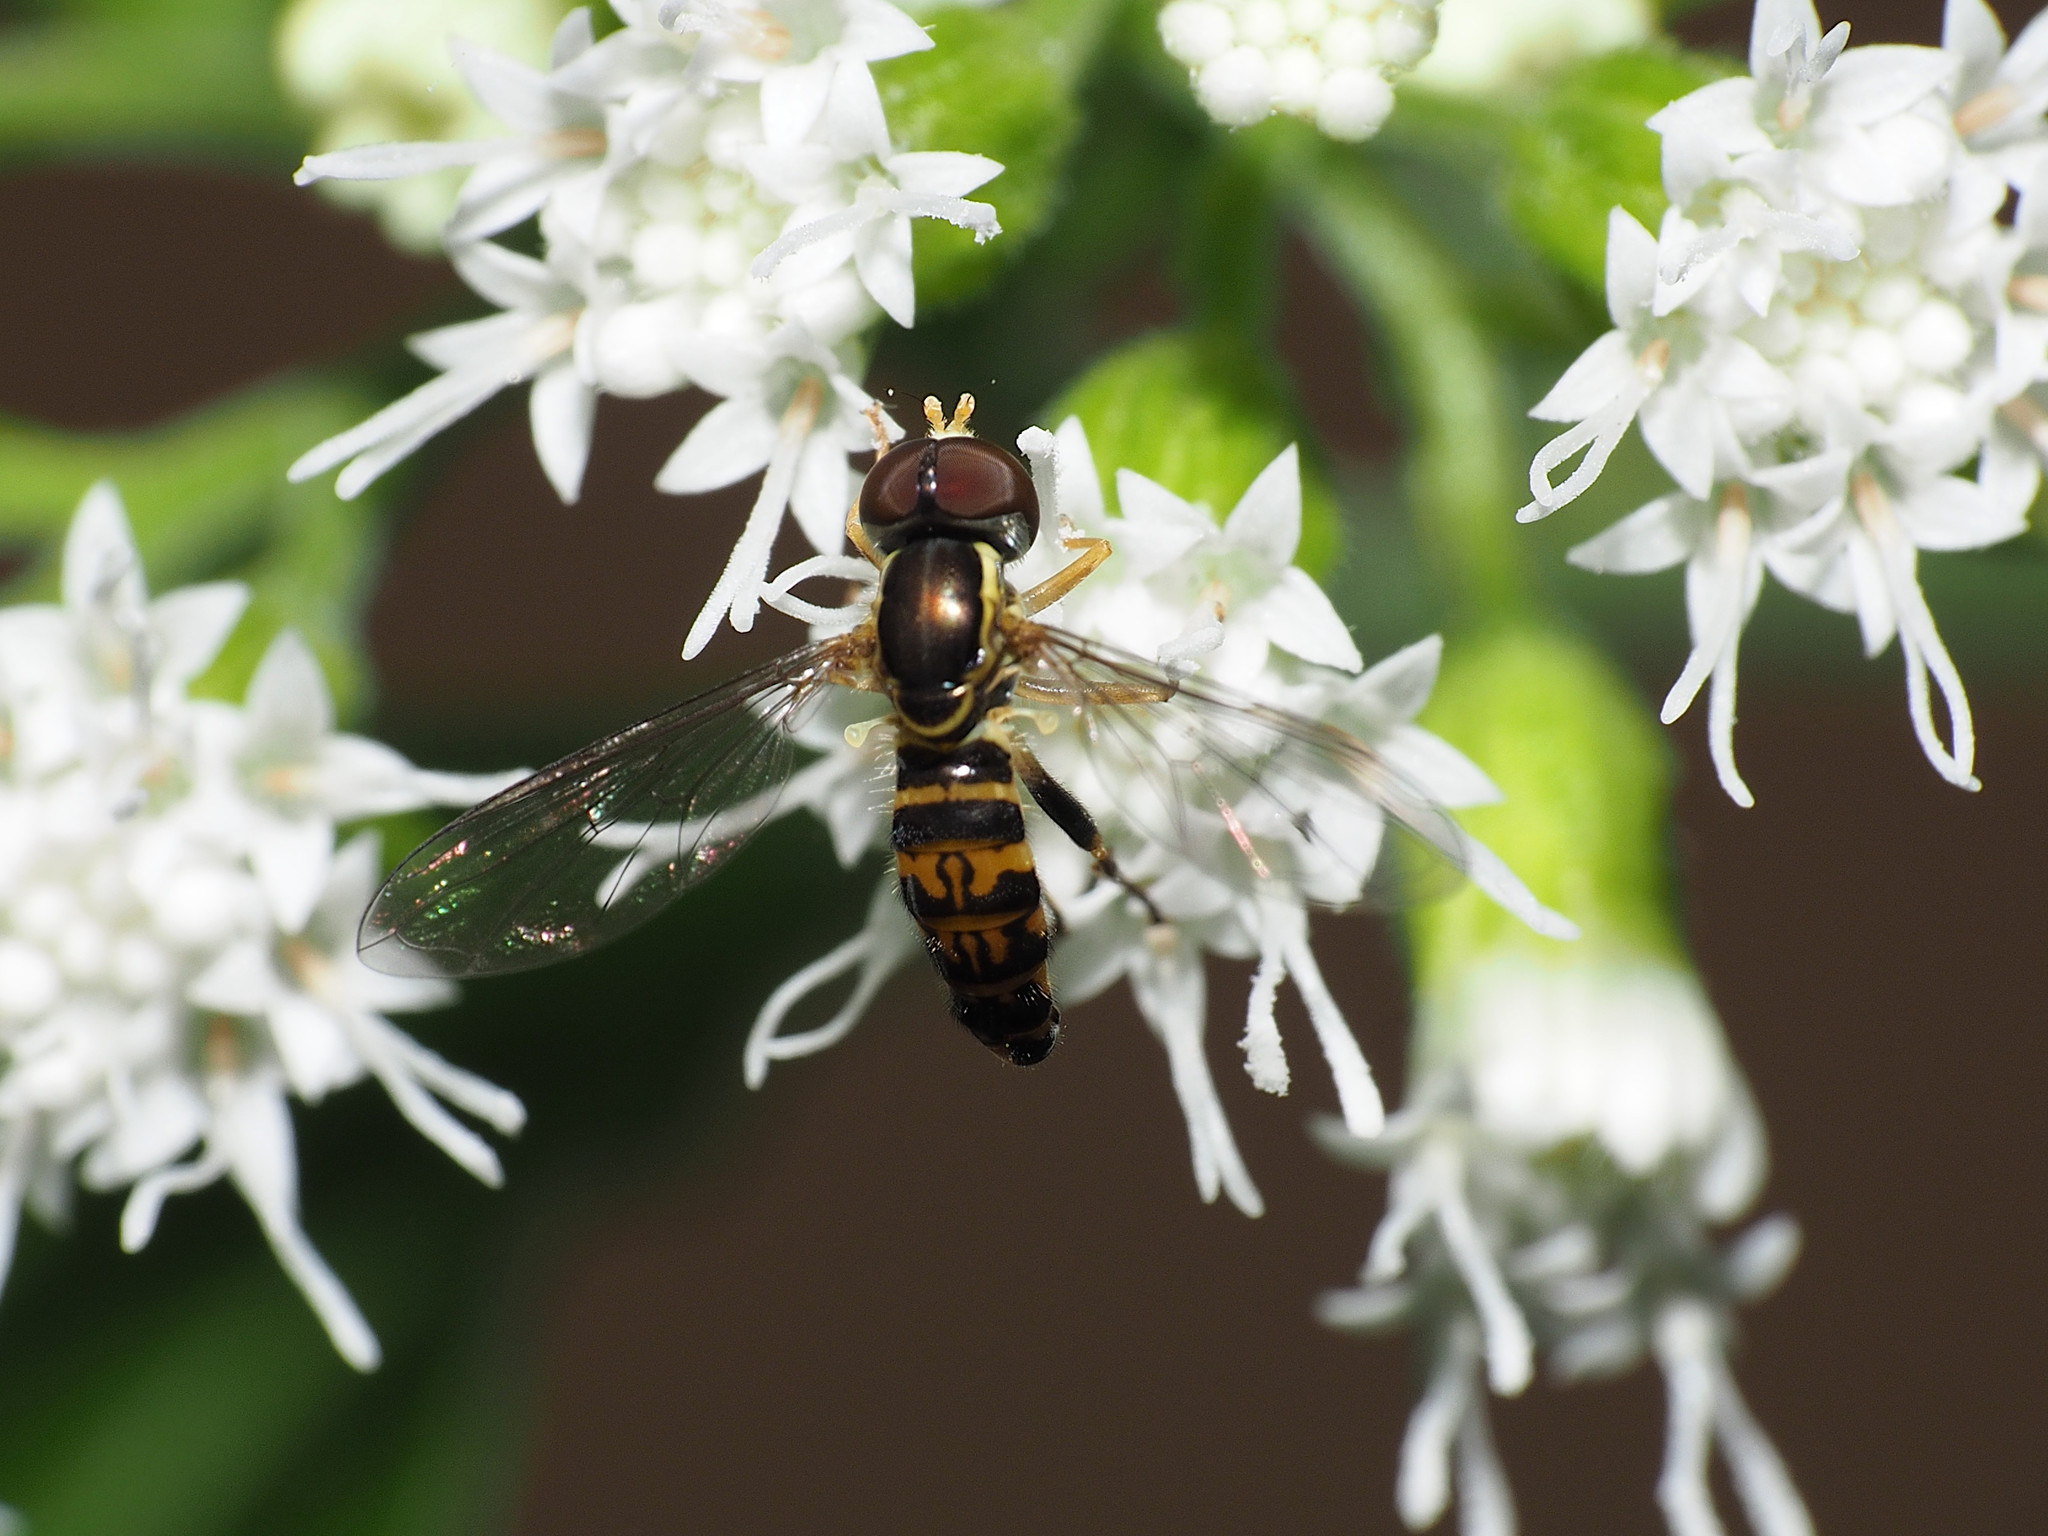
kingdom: Animalia
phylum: Arthropoda
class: Insecta
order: Diptera
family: Syrphidae
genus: Toxomerus
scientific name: Toxomerus geminatus
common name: Eastern calligrapher
